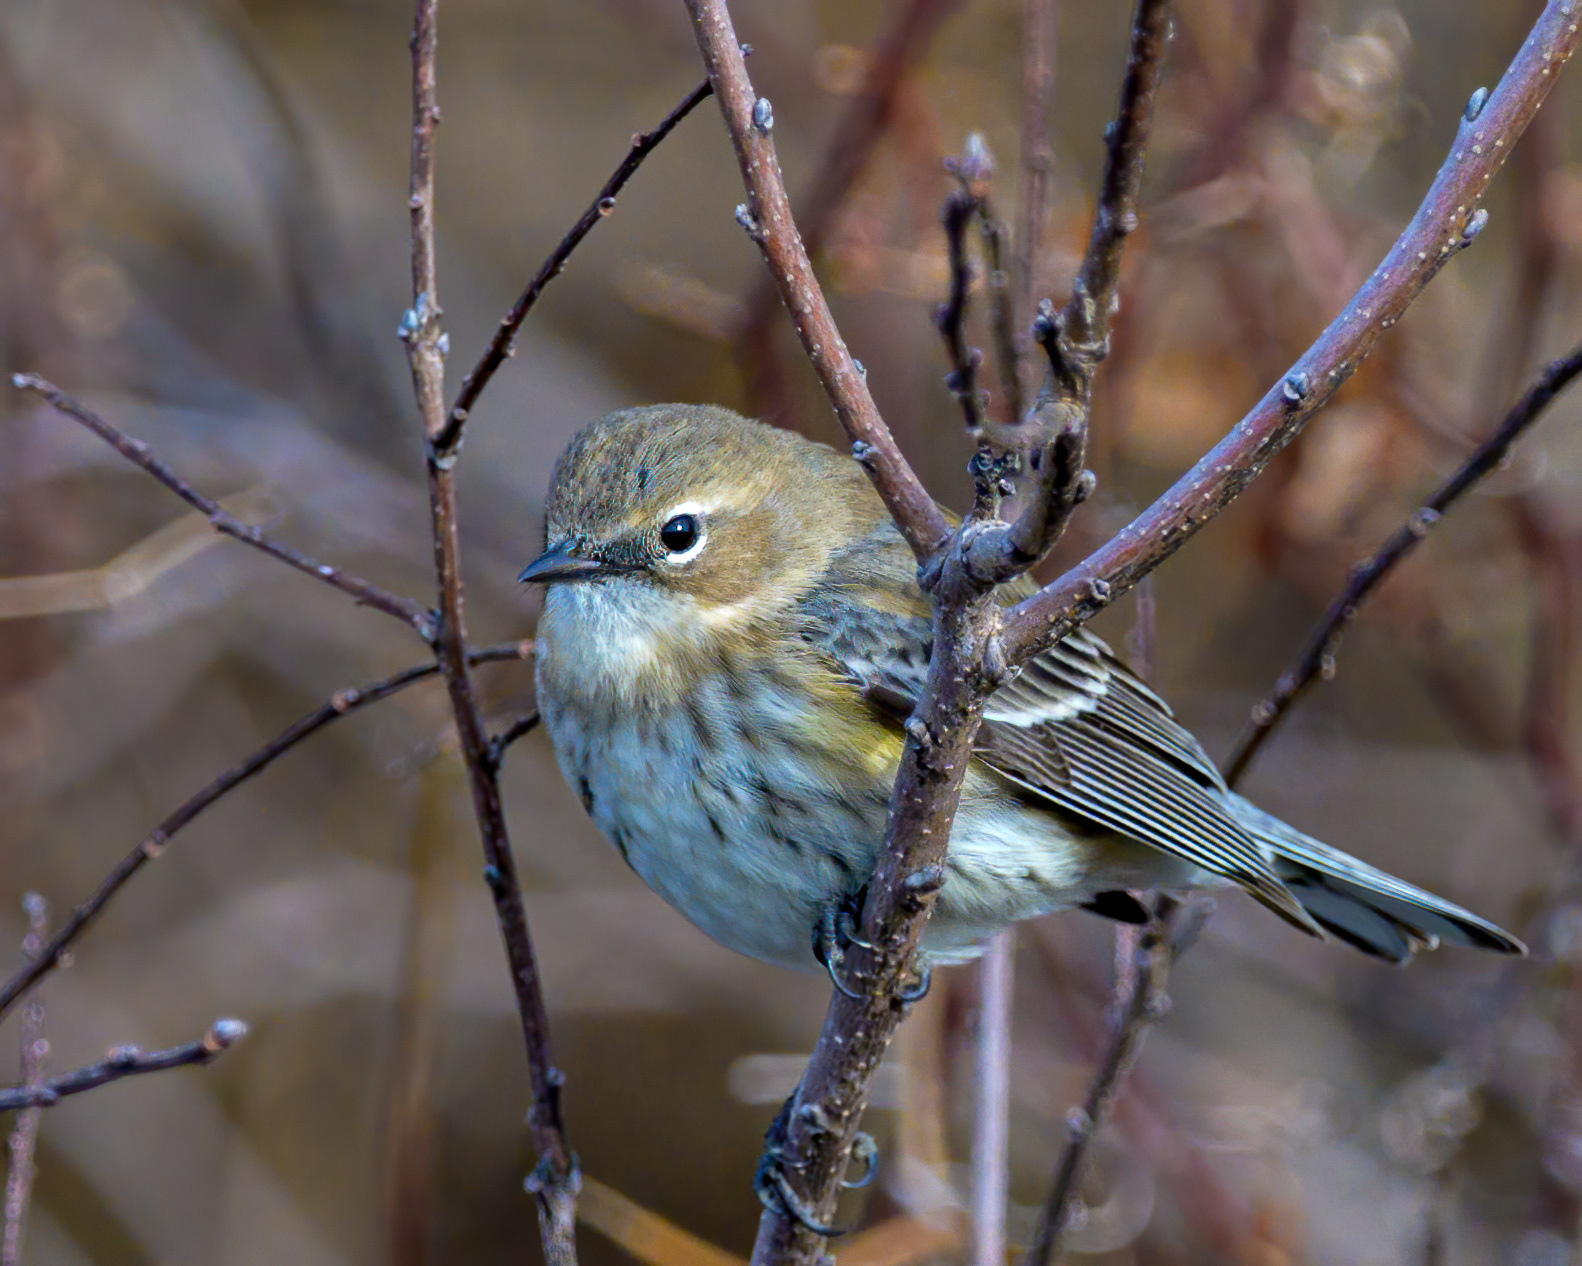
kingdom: Animalia
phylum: Chordata
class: Aves
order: Passeriformes
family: Parulidae
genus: Setophaga
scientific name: Setophaga coronata
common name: Myrtle warbler
